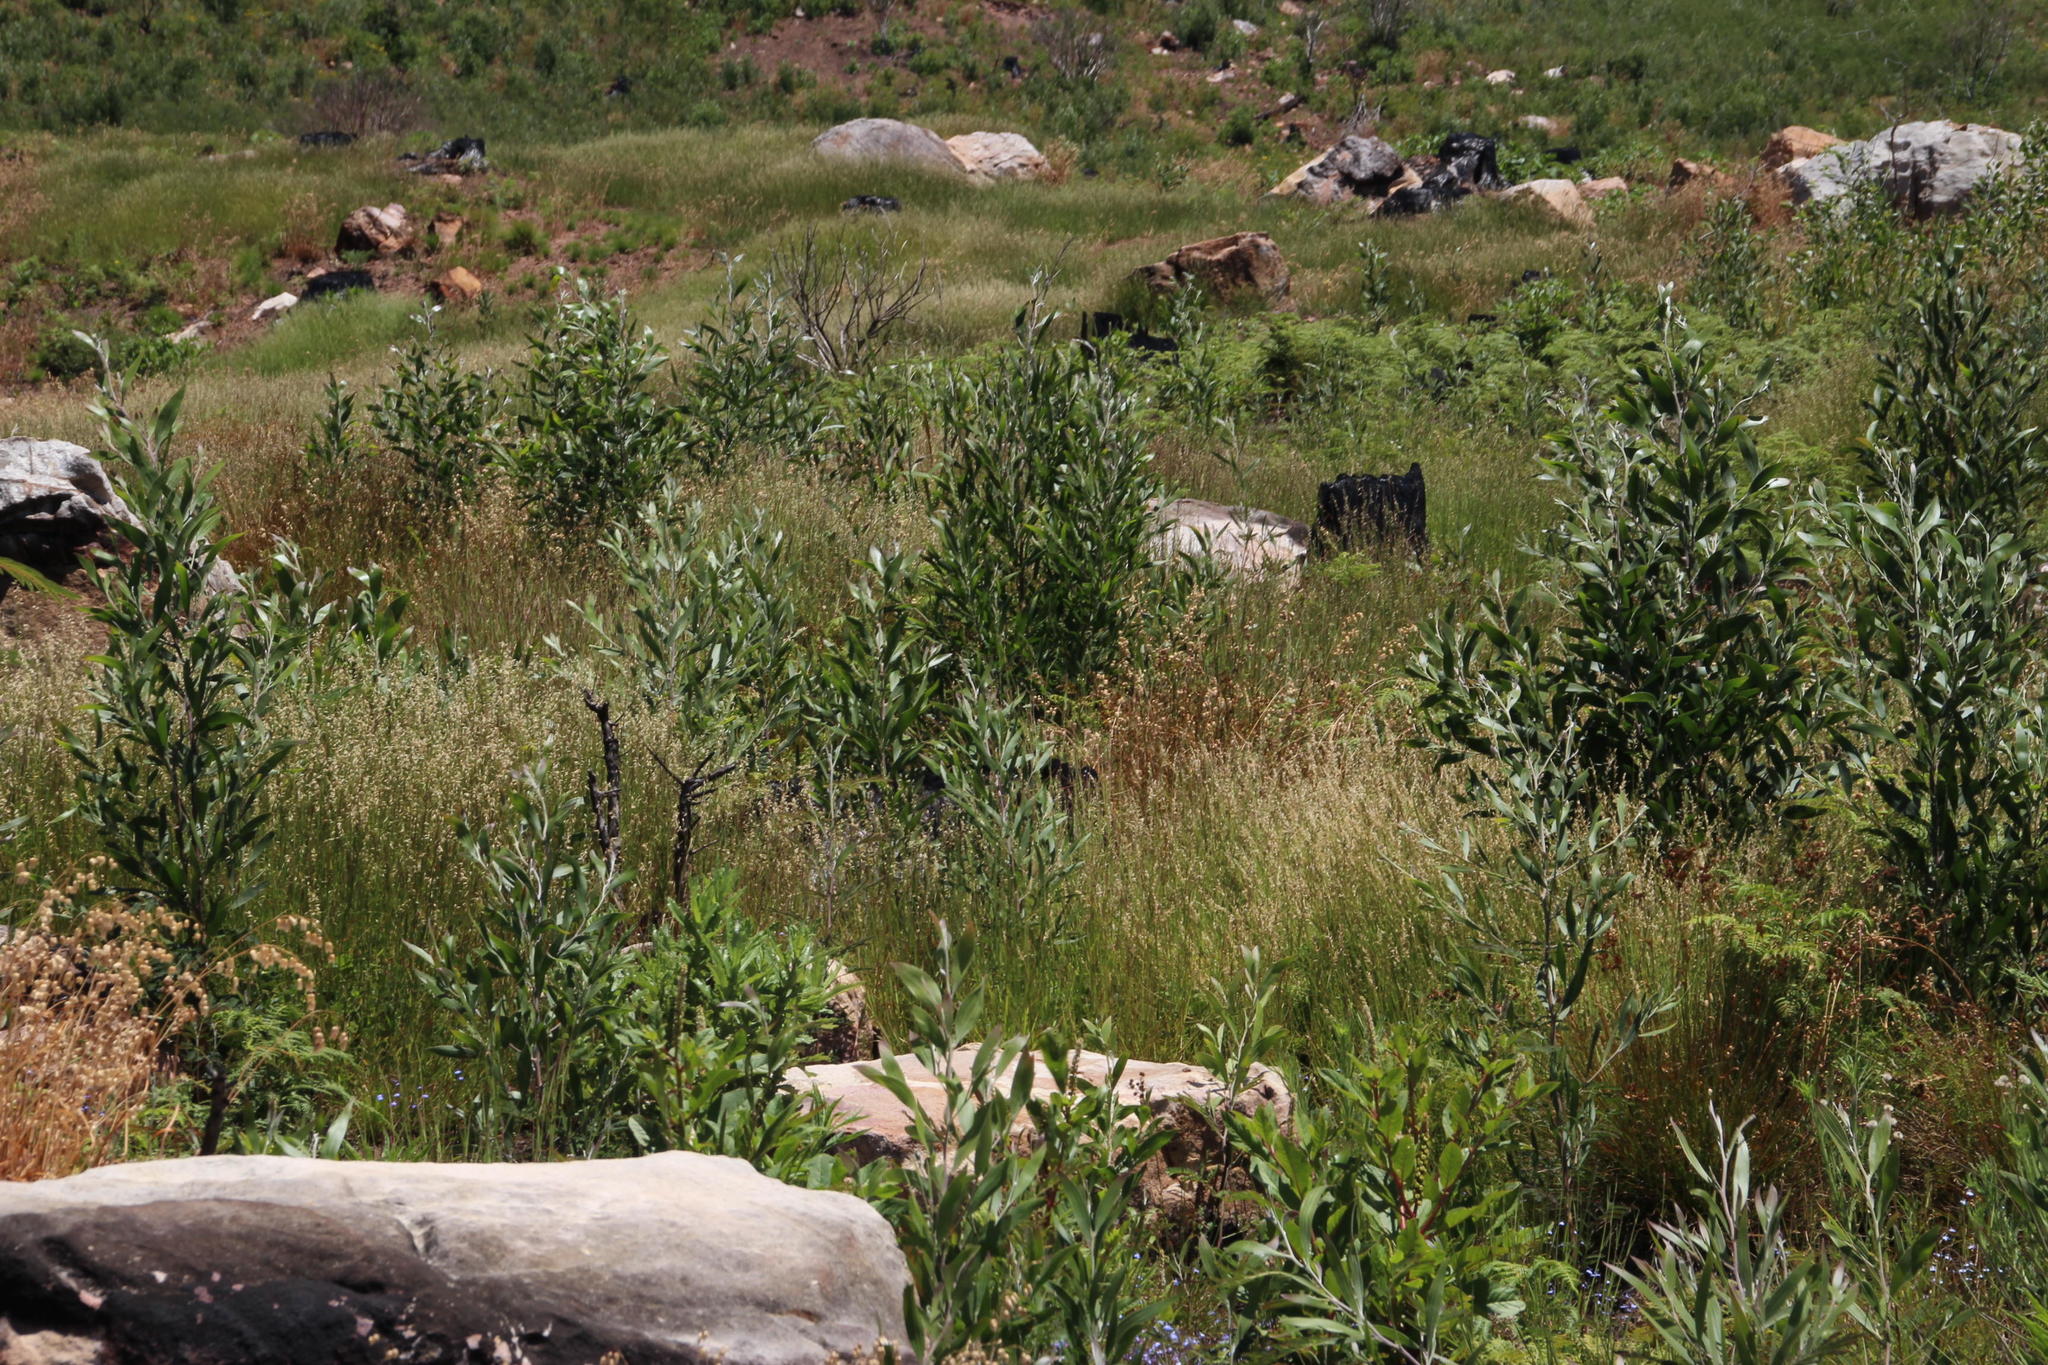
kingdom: Plantae
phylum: Tracheophyta
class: Magnoliopsida
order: Fabales
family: Fabaceae
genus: Acacia
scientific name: Acacia melanoxylon
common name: Blackwood
